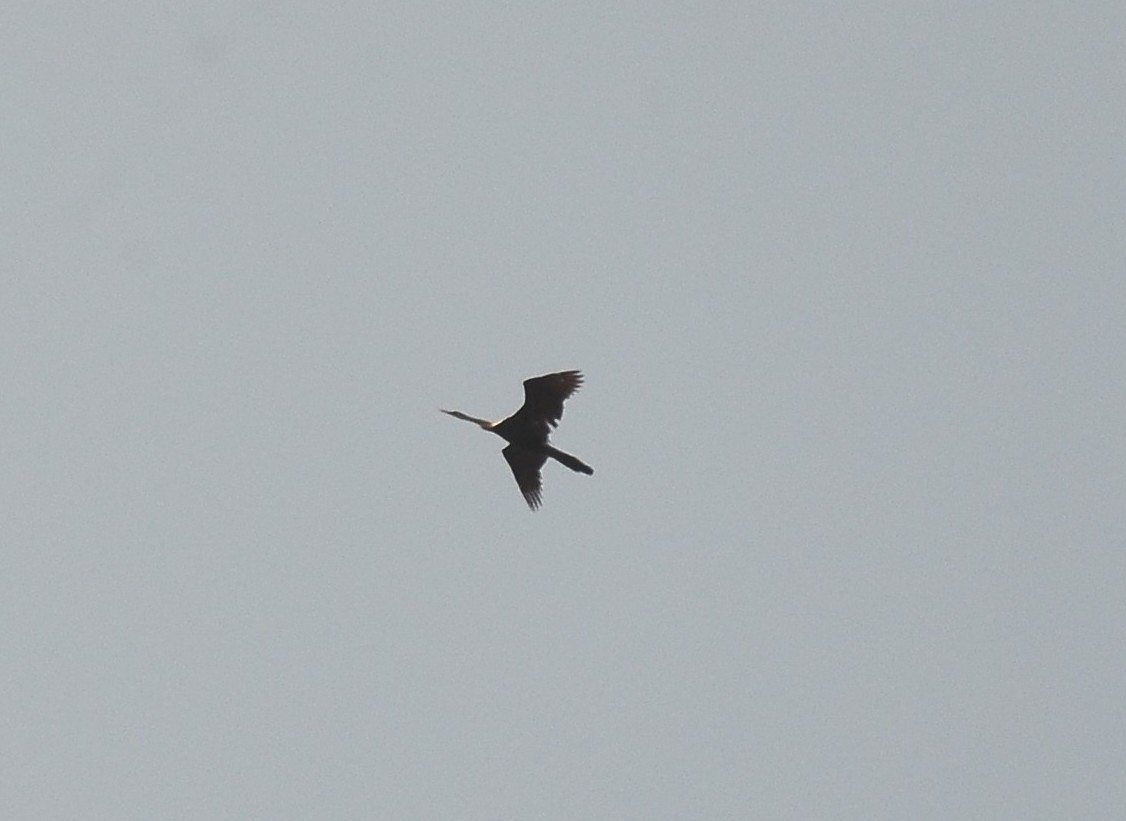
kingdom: Animalia
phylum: Chordata
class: Aves
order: Suliformes
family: Anhingidae
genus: Anhinga
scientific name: Anhinga melanogaster
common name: Oriental darter
